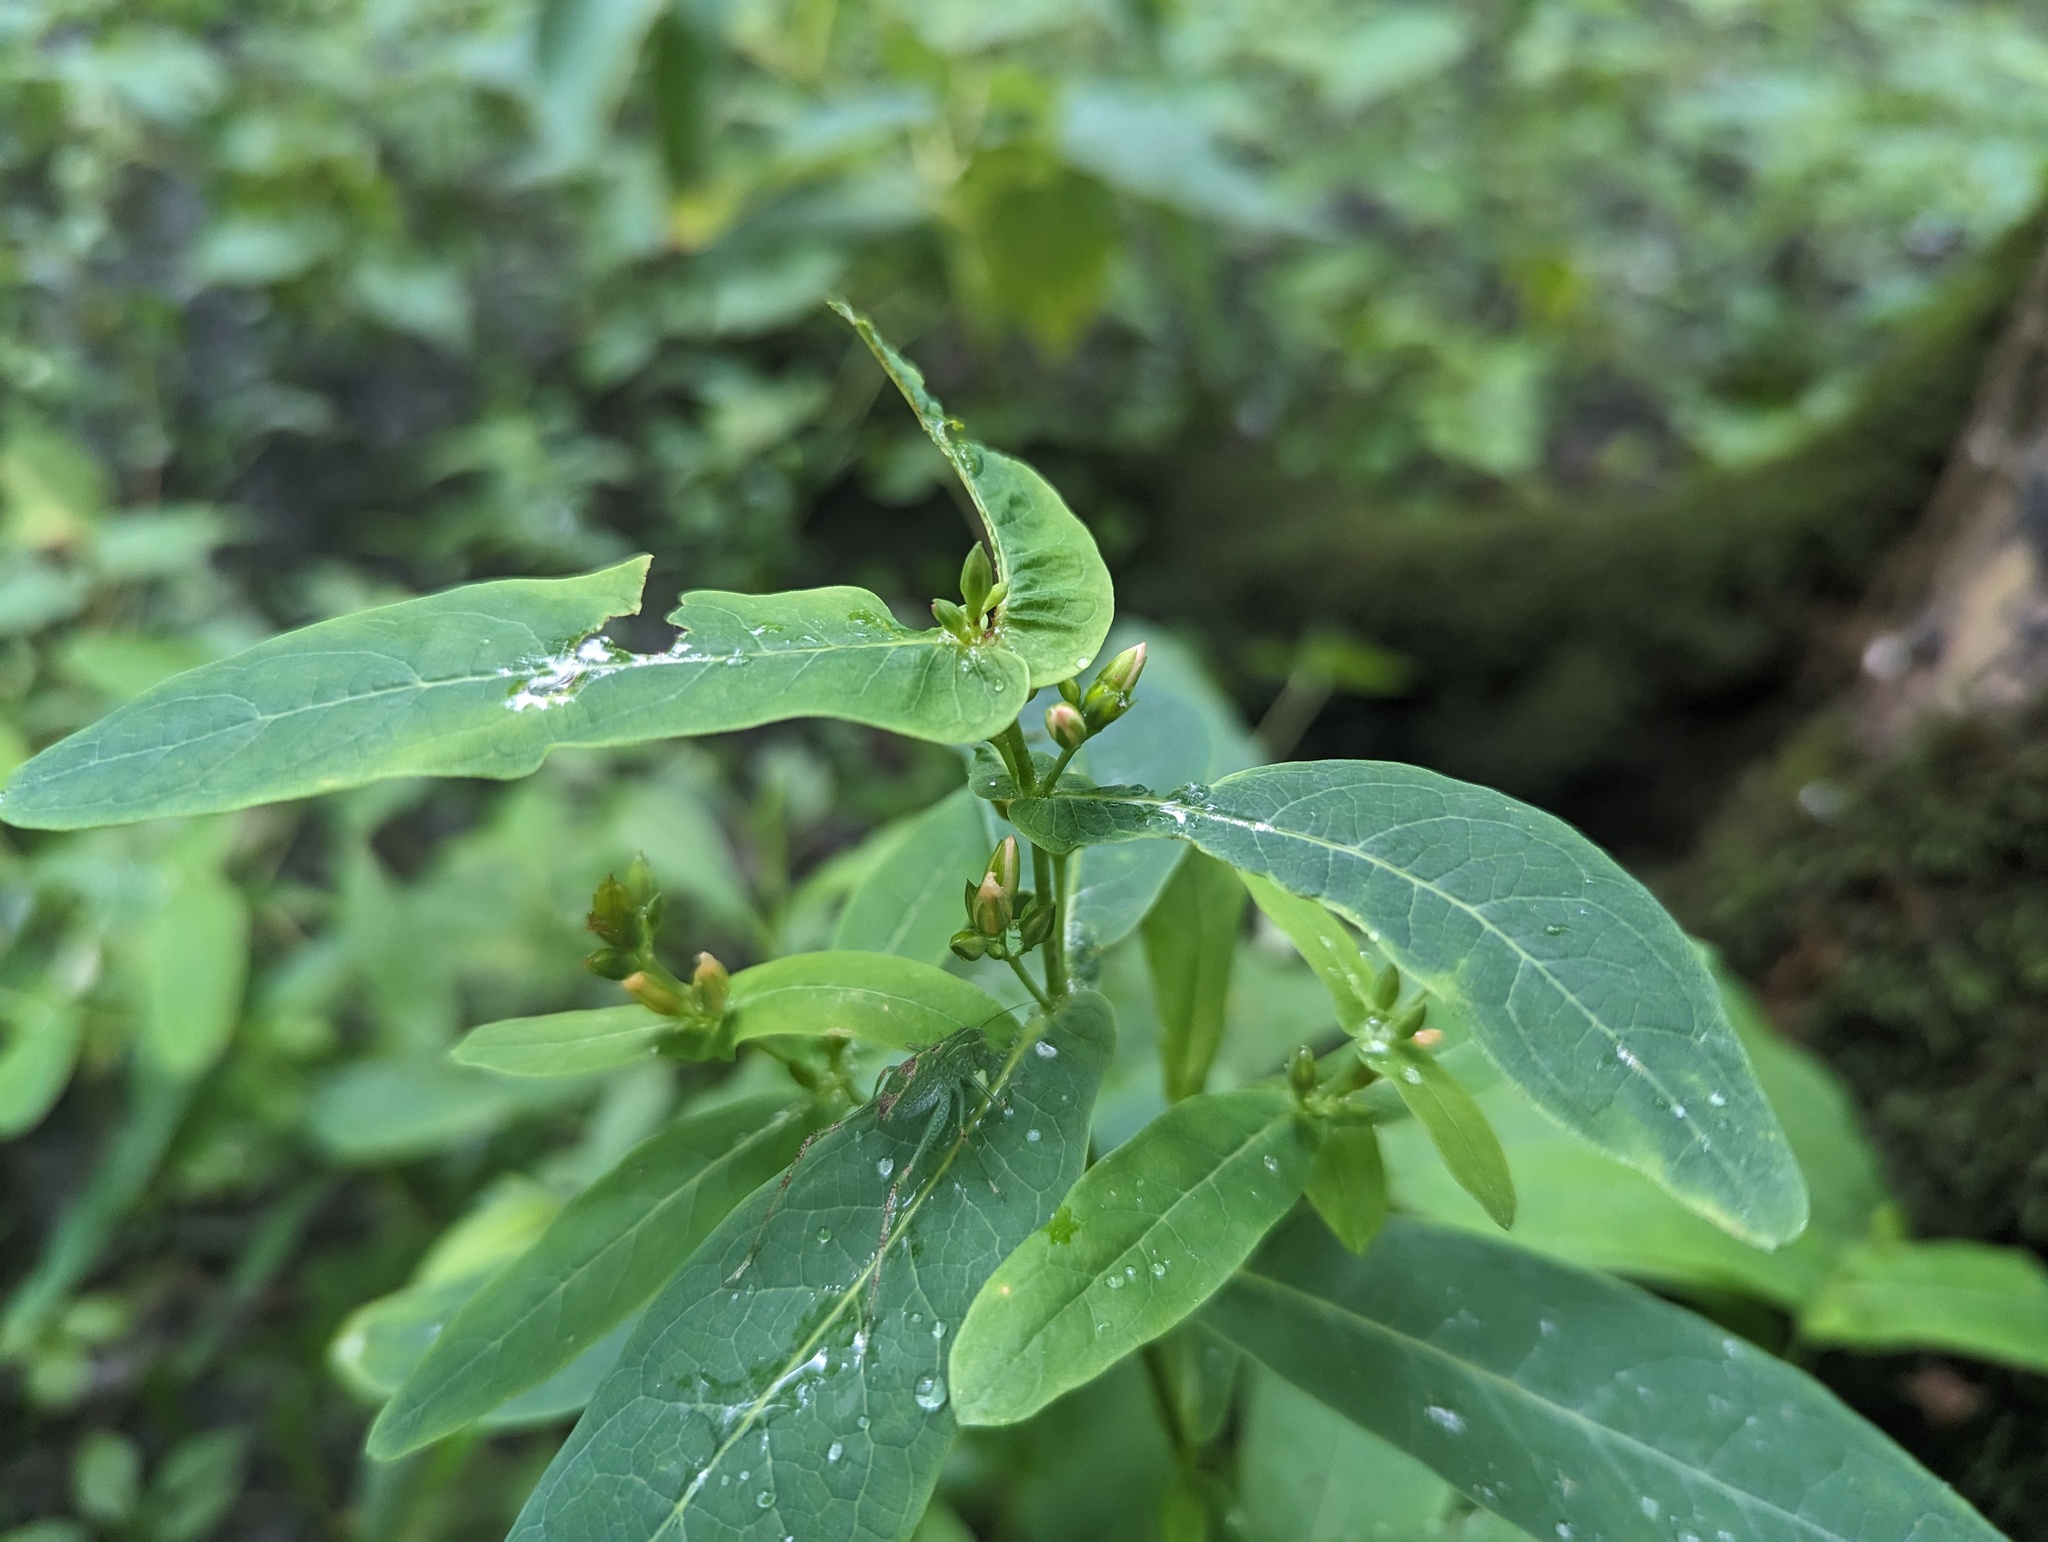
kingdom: Plantae
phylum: Tracheophyta
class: Magnoliopsida
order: Malpighiales
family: Hypericaceae
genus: Triadenum
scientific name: Triadenum tubulosum
